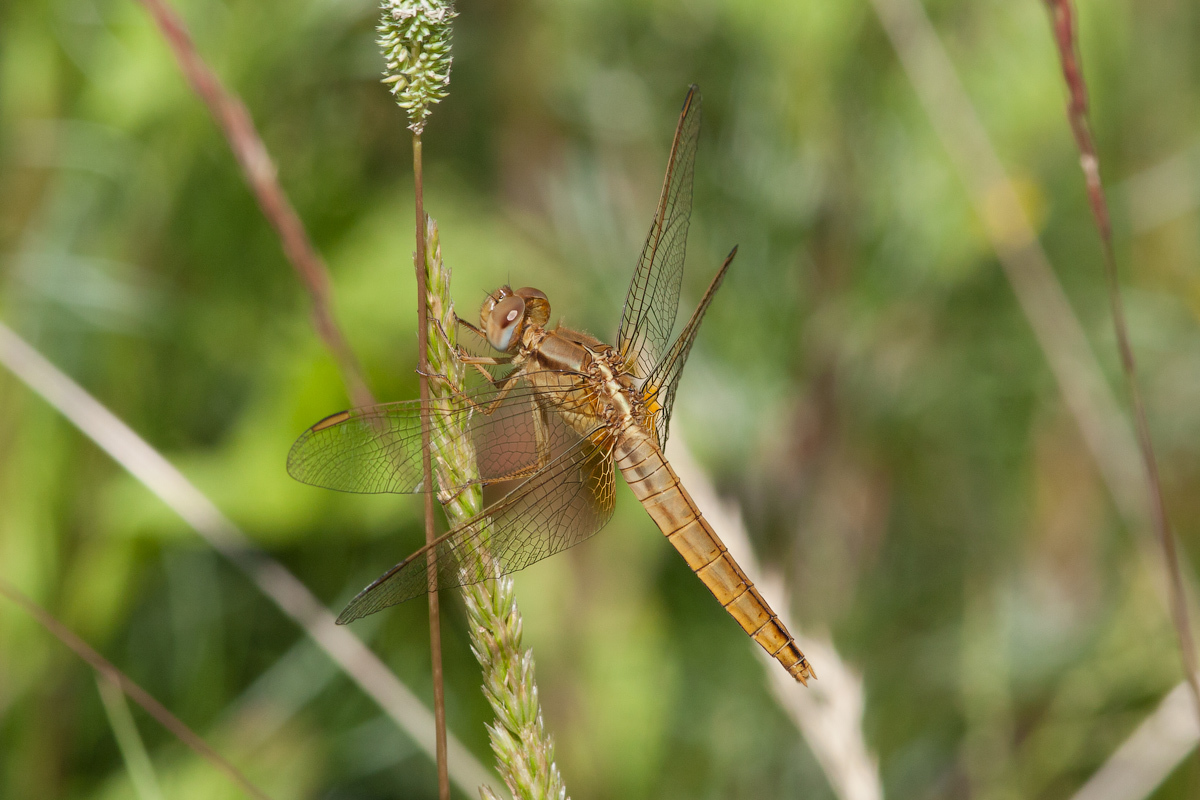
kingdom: Animalia
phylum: Arthropoda
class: Insecta
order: Odonata
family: Libellulidae
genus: Crocothemis
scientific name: Crocothemis erythraea
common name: Scarlet dragonfly
